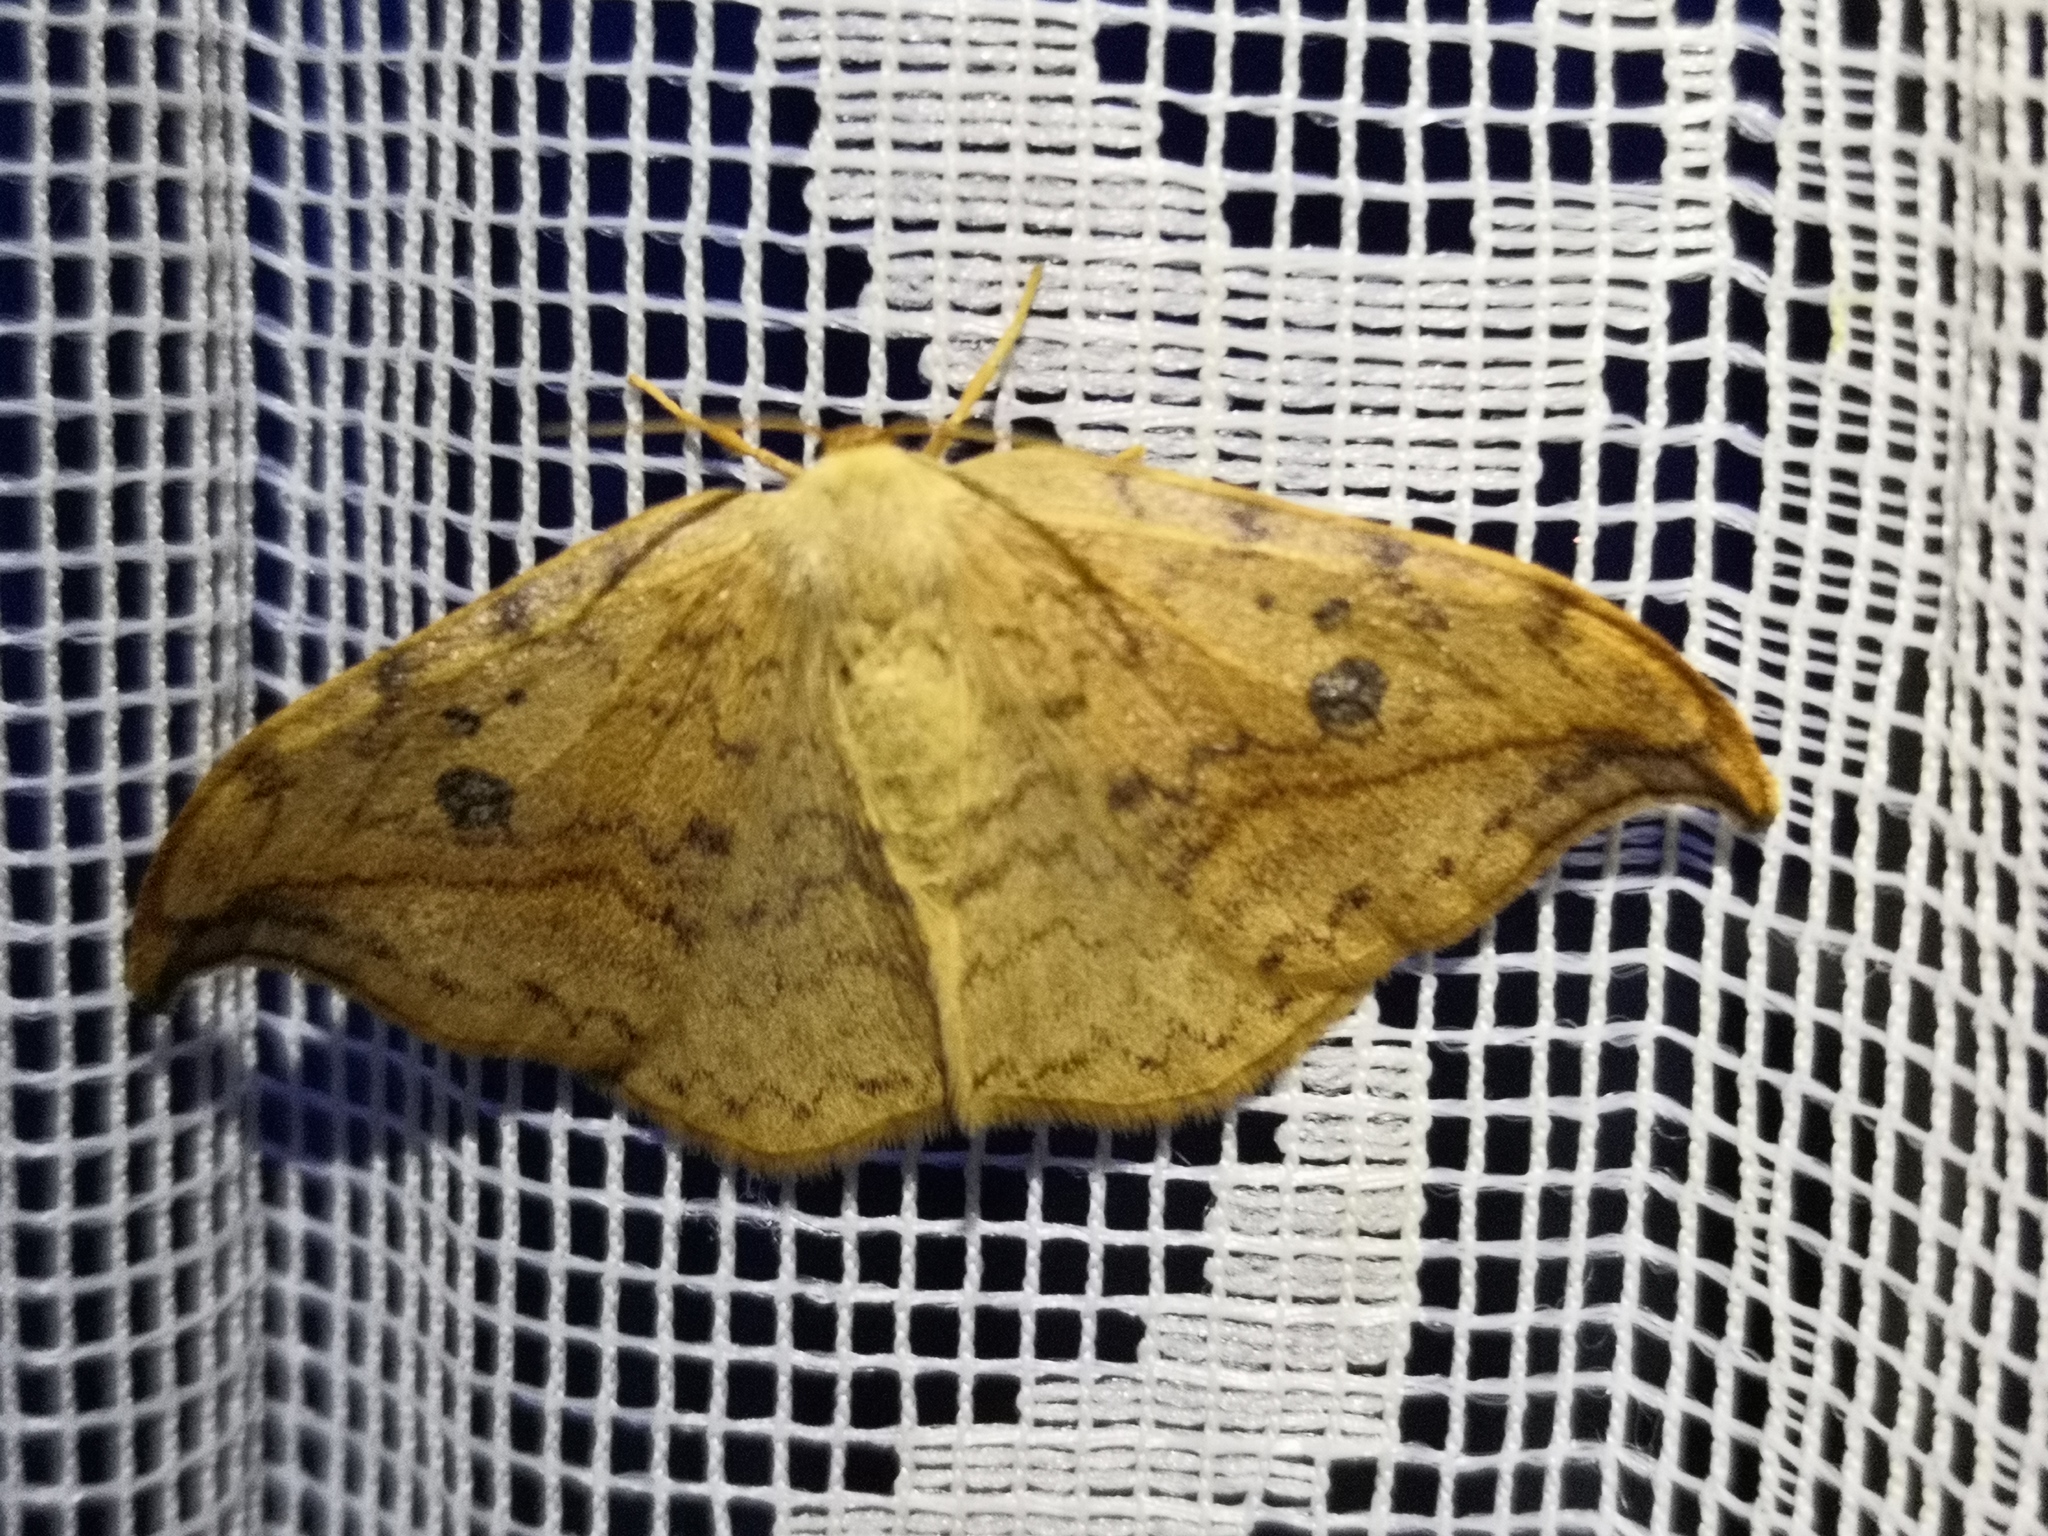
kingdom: Animalia
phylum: Arthropoda
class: Insecta
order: Lepidoptera
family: Drepanidae
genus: Drepana
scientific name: Drepana falcataria
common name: Pebble hook-tip
